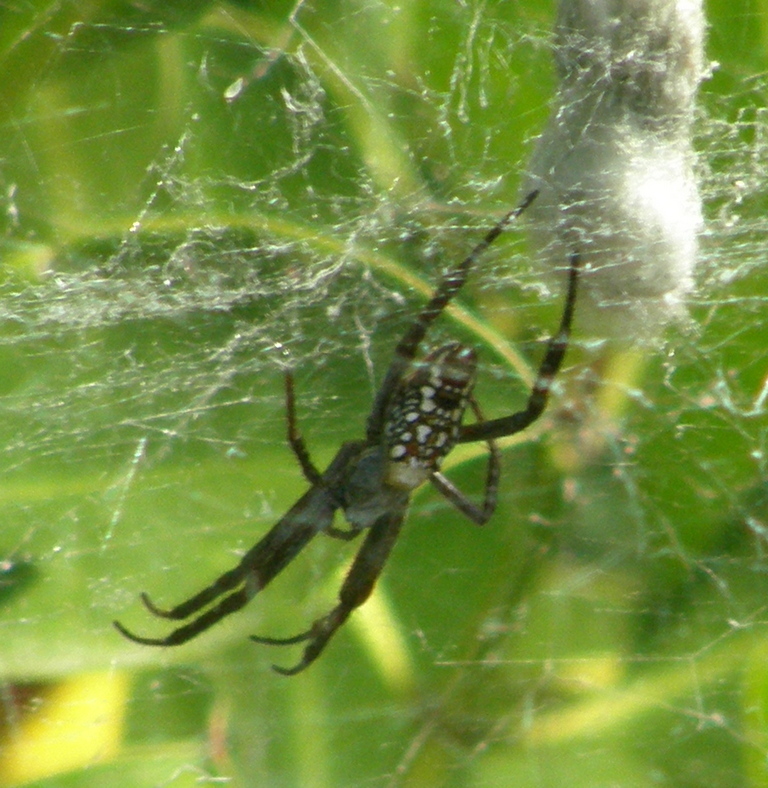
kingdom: Chromista
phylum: Ochrophyta
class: Dictyochophyceae
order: Pedinellales
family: Cyrtophoraceae
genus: Cyrtophora
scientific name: Cyrtophora moluccensis
